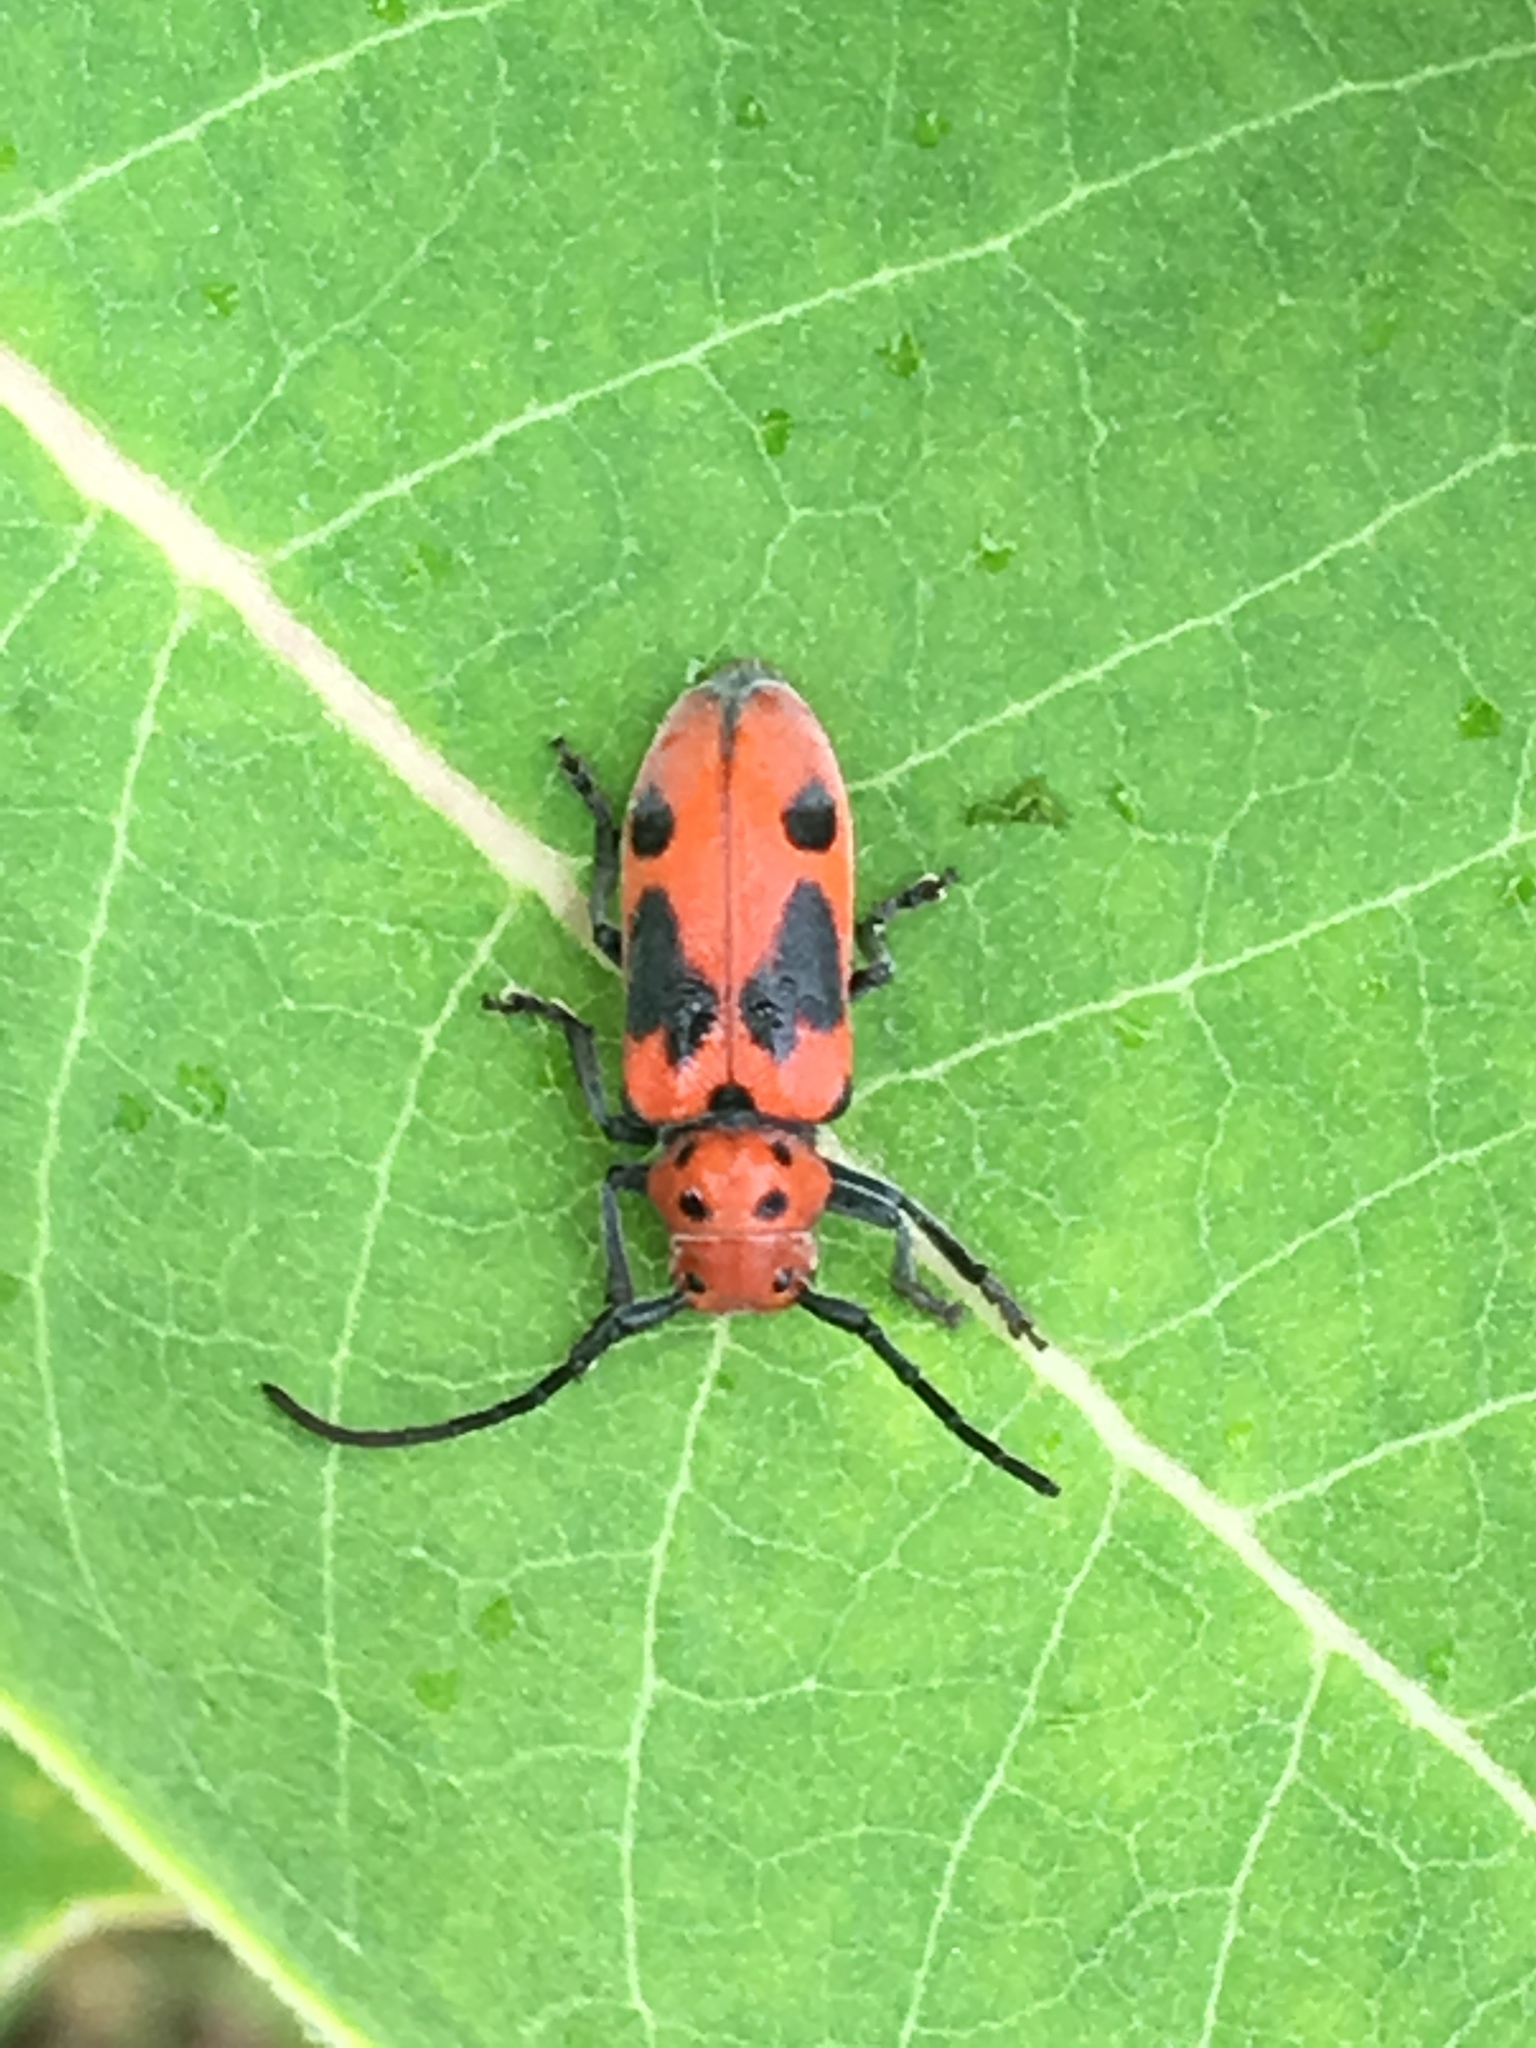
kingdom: Animalia
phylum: Arthropoda
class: Insecta
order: Coleoptera
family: Cerambycidae
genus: Tetraopes
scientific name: Tetraopes tetrophthalmus
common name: Red milkweed beetle
